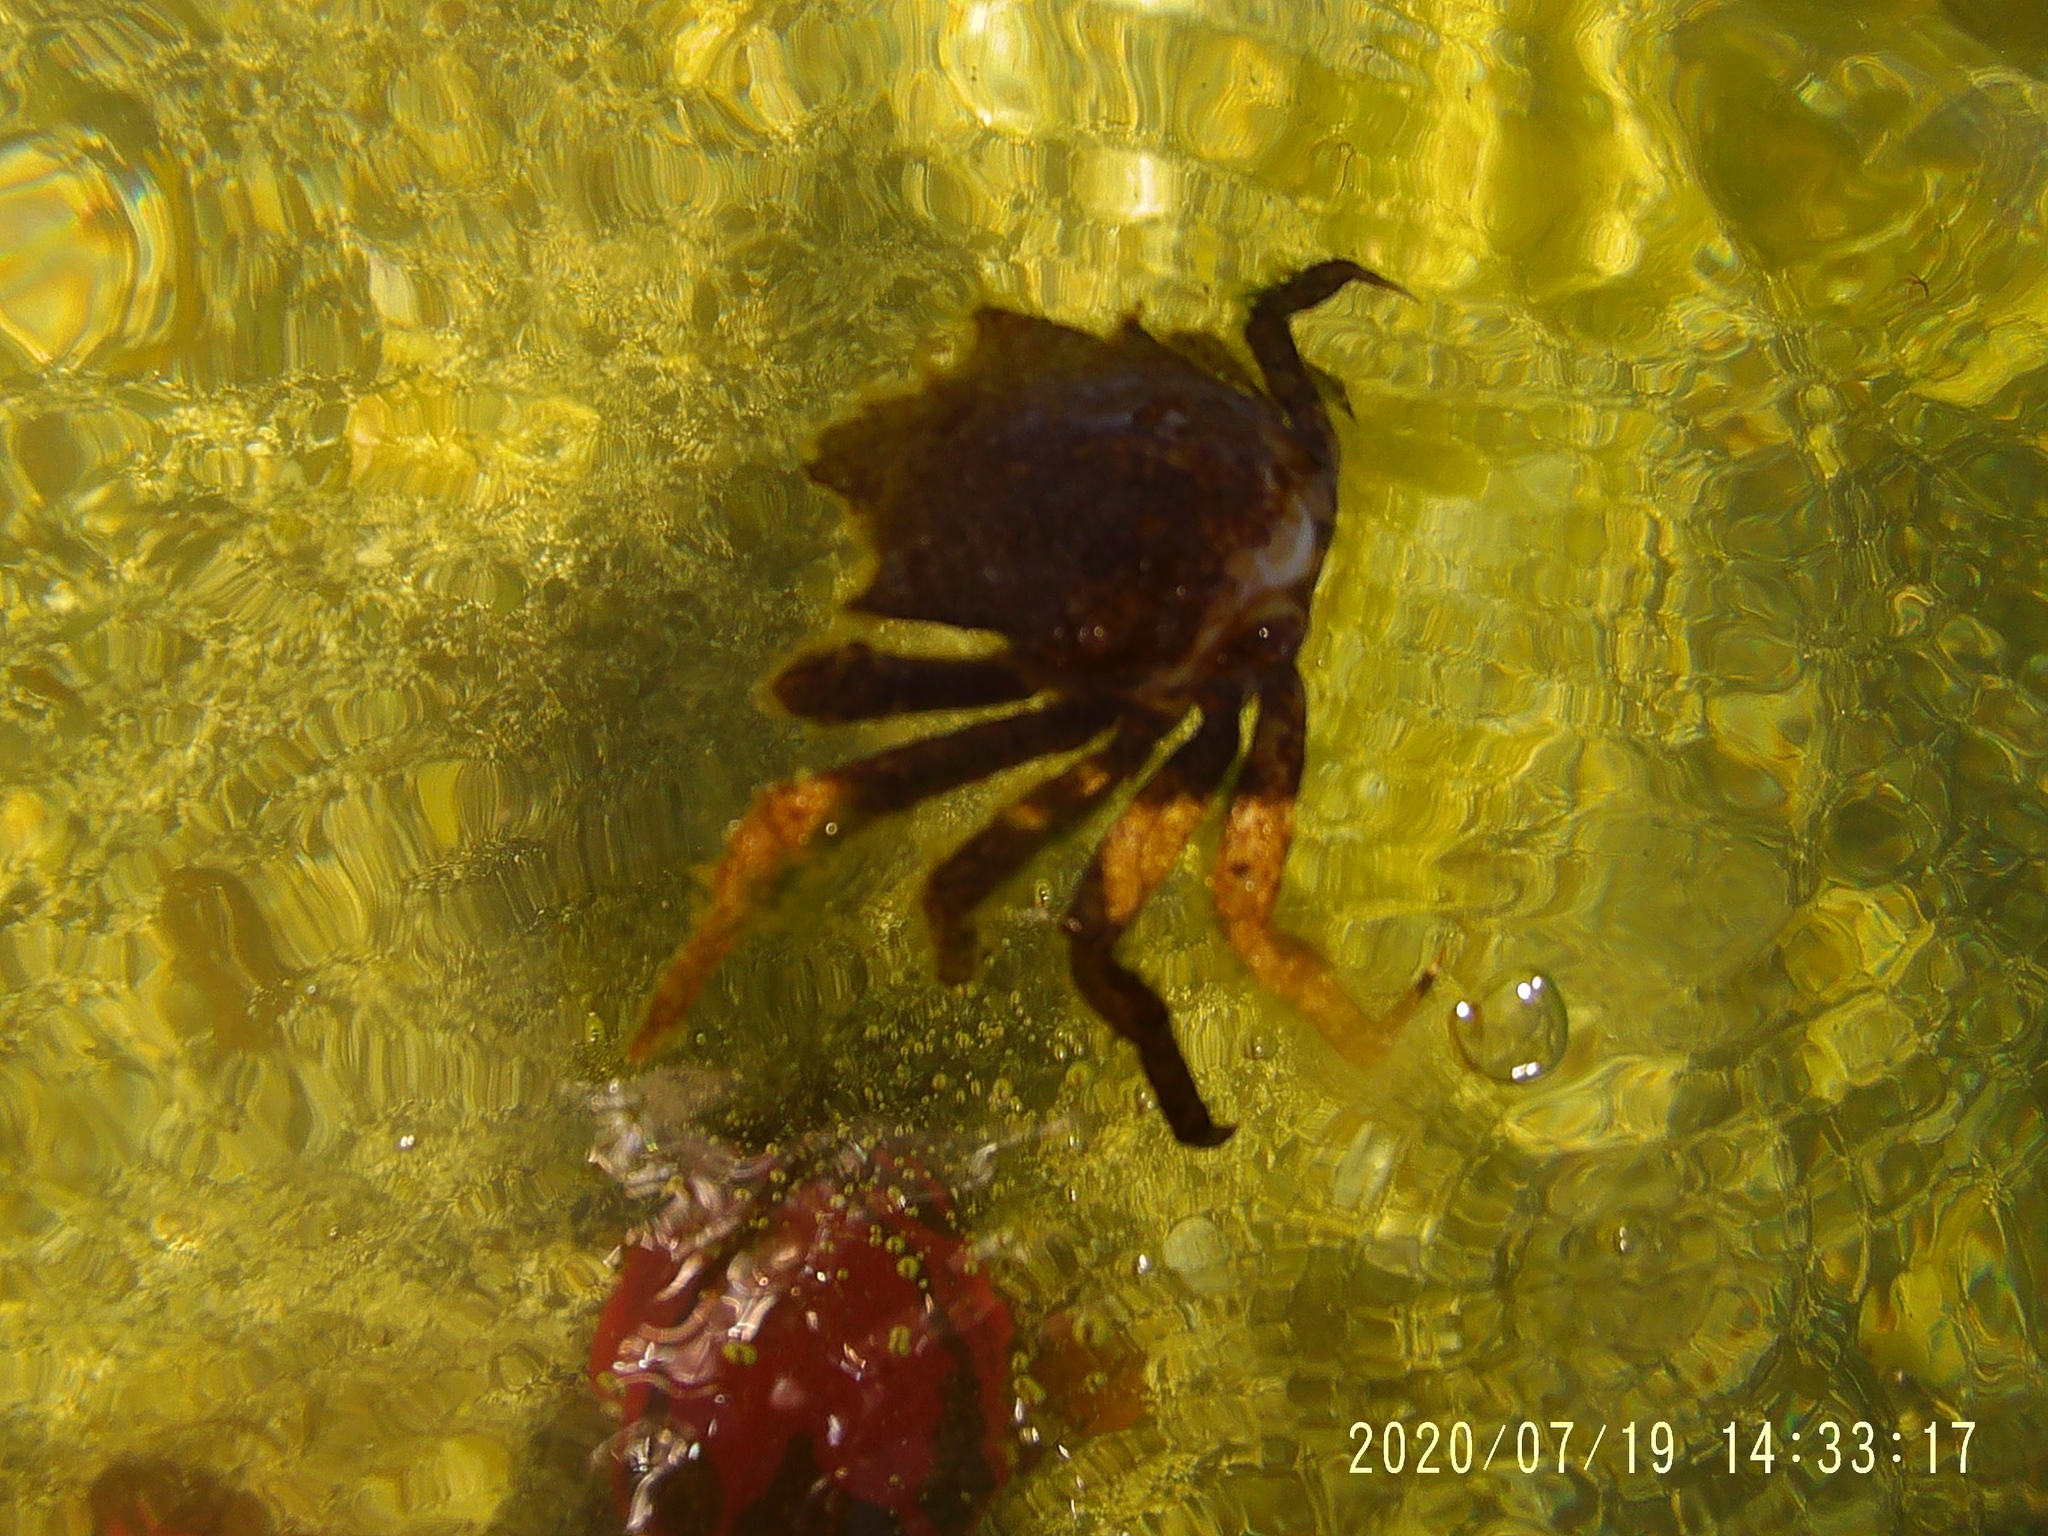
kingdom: Animalia
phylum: Arthropoda
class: Malacostraca
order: Decapoda
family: Epialtidae
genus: Pugettia
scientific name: Pugettia producta
